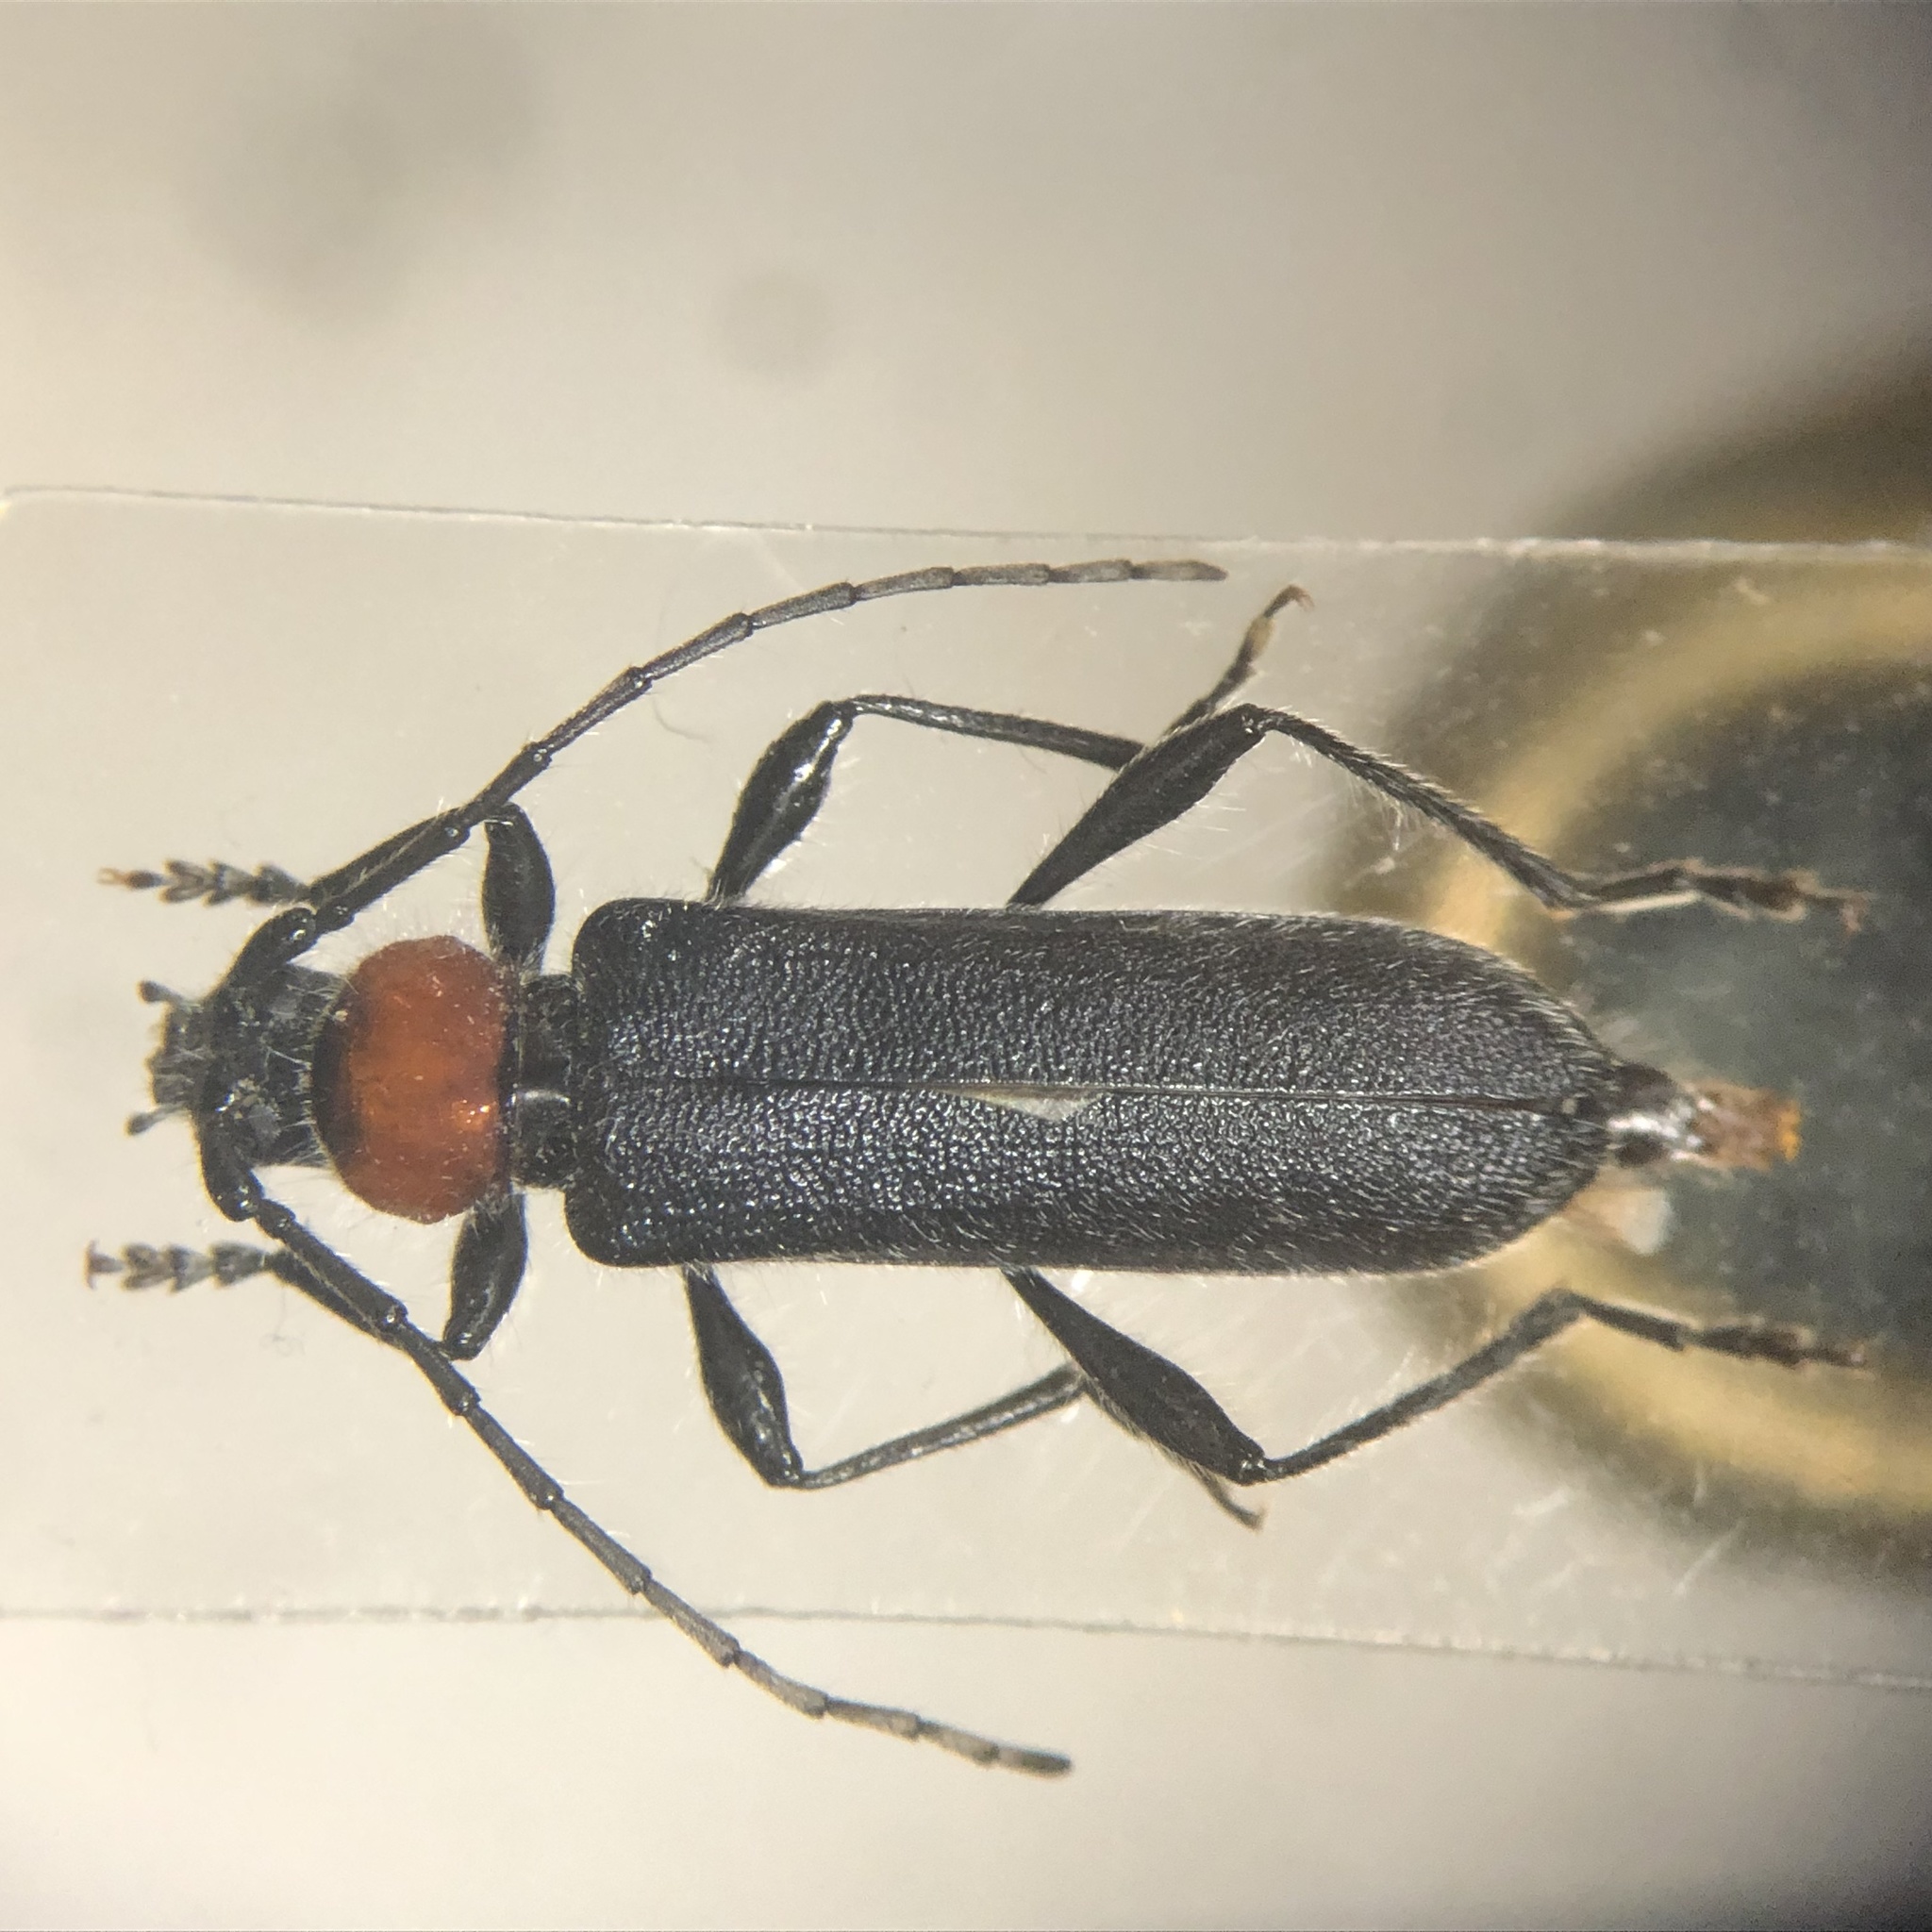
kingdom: Animalia
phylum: Arthropoda
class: Insecta
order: Coleoptera
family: Cerambycidae
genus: Pronocera
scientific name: Pronocera collaris
